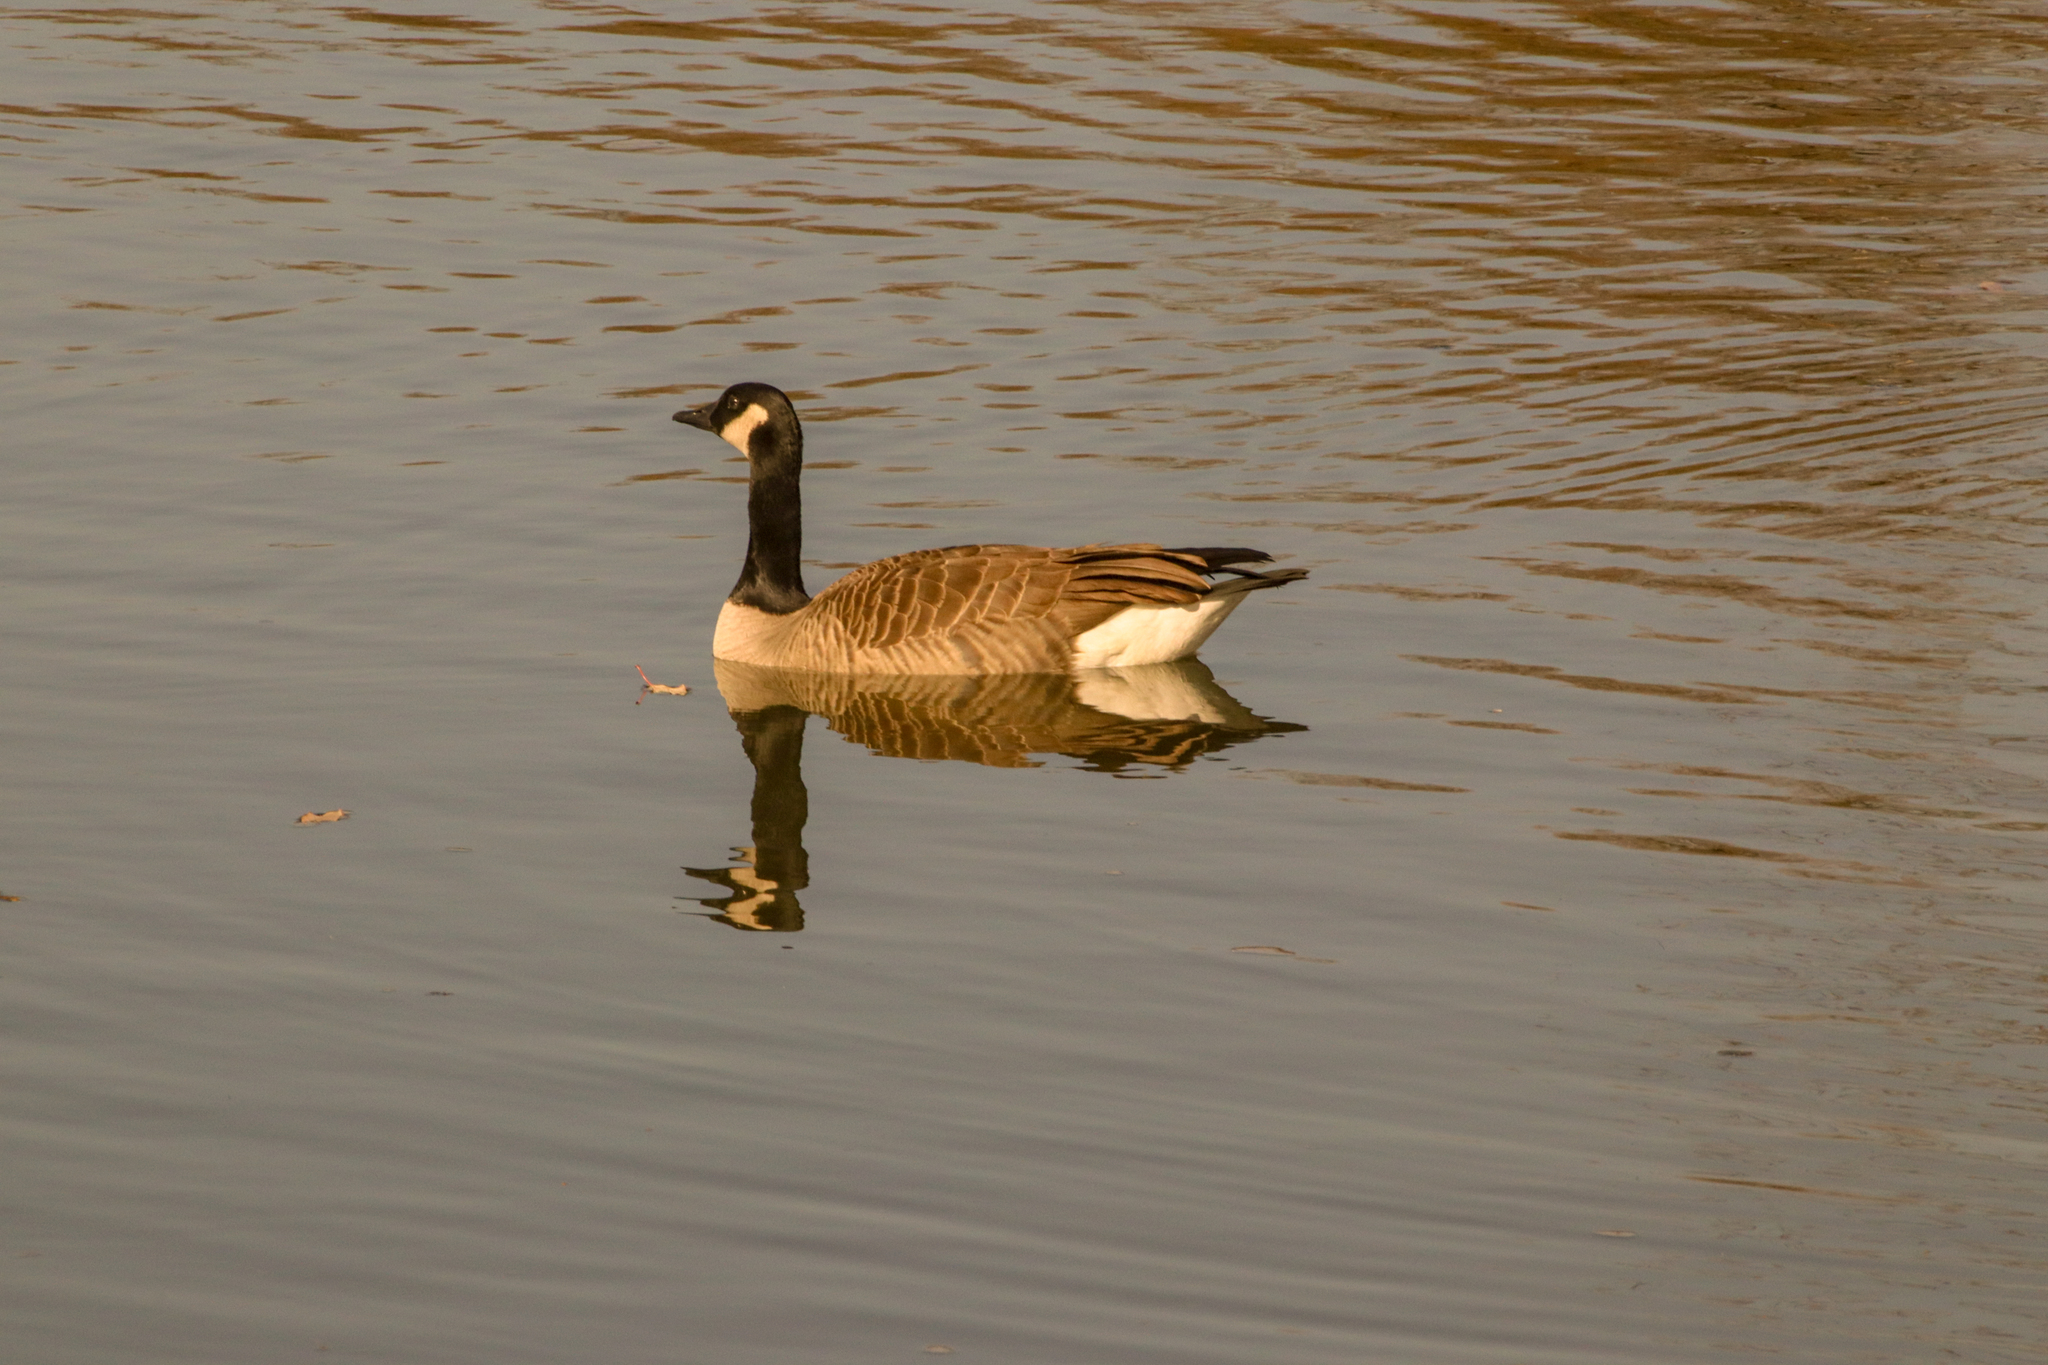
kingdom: Animalia
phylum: Chordata
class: Aves
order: Anseriformes
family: Anatidae
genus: Branta
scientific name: Branta canadensis
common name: Canada goose
